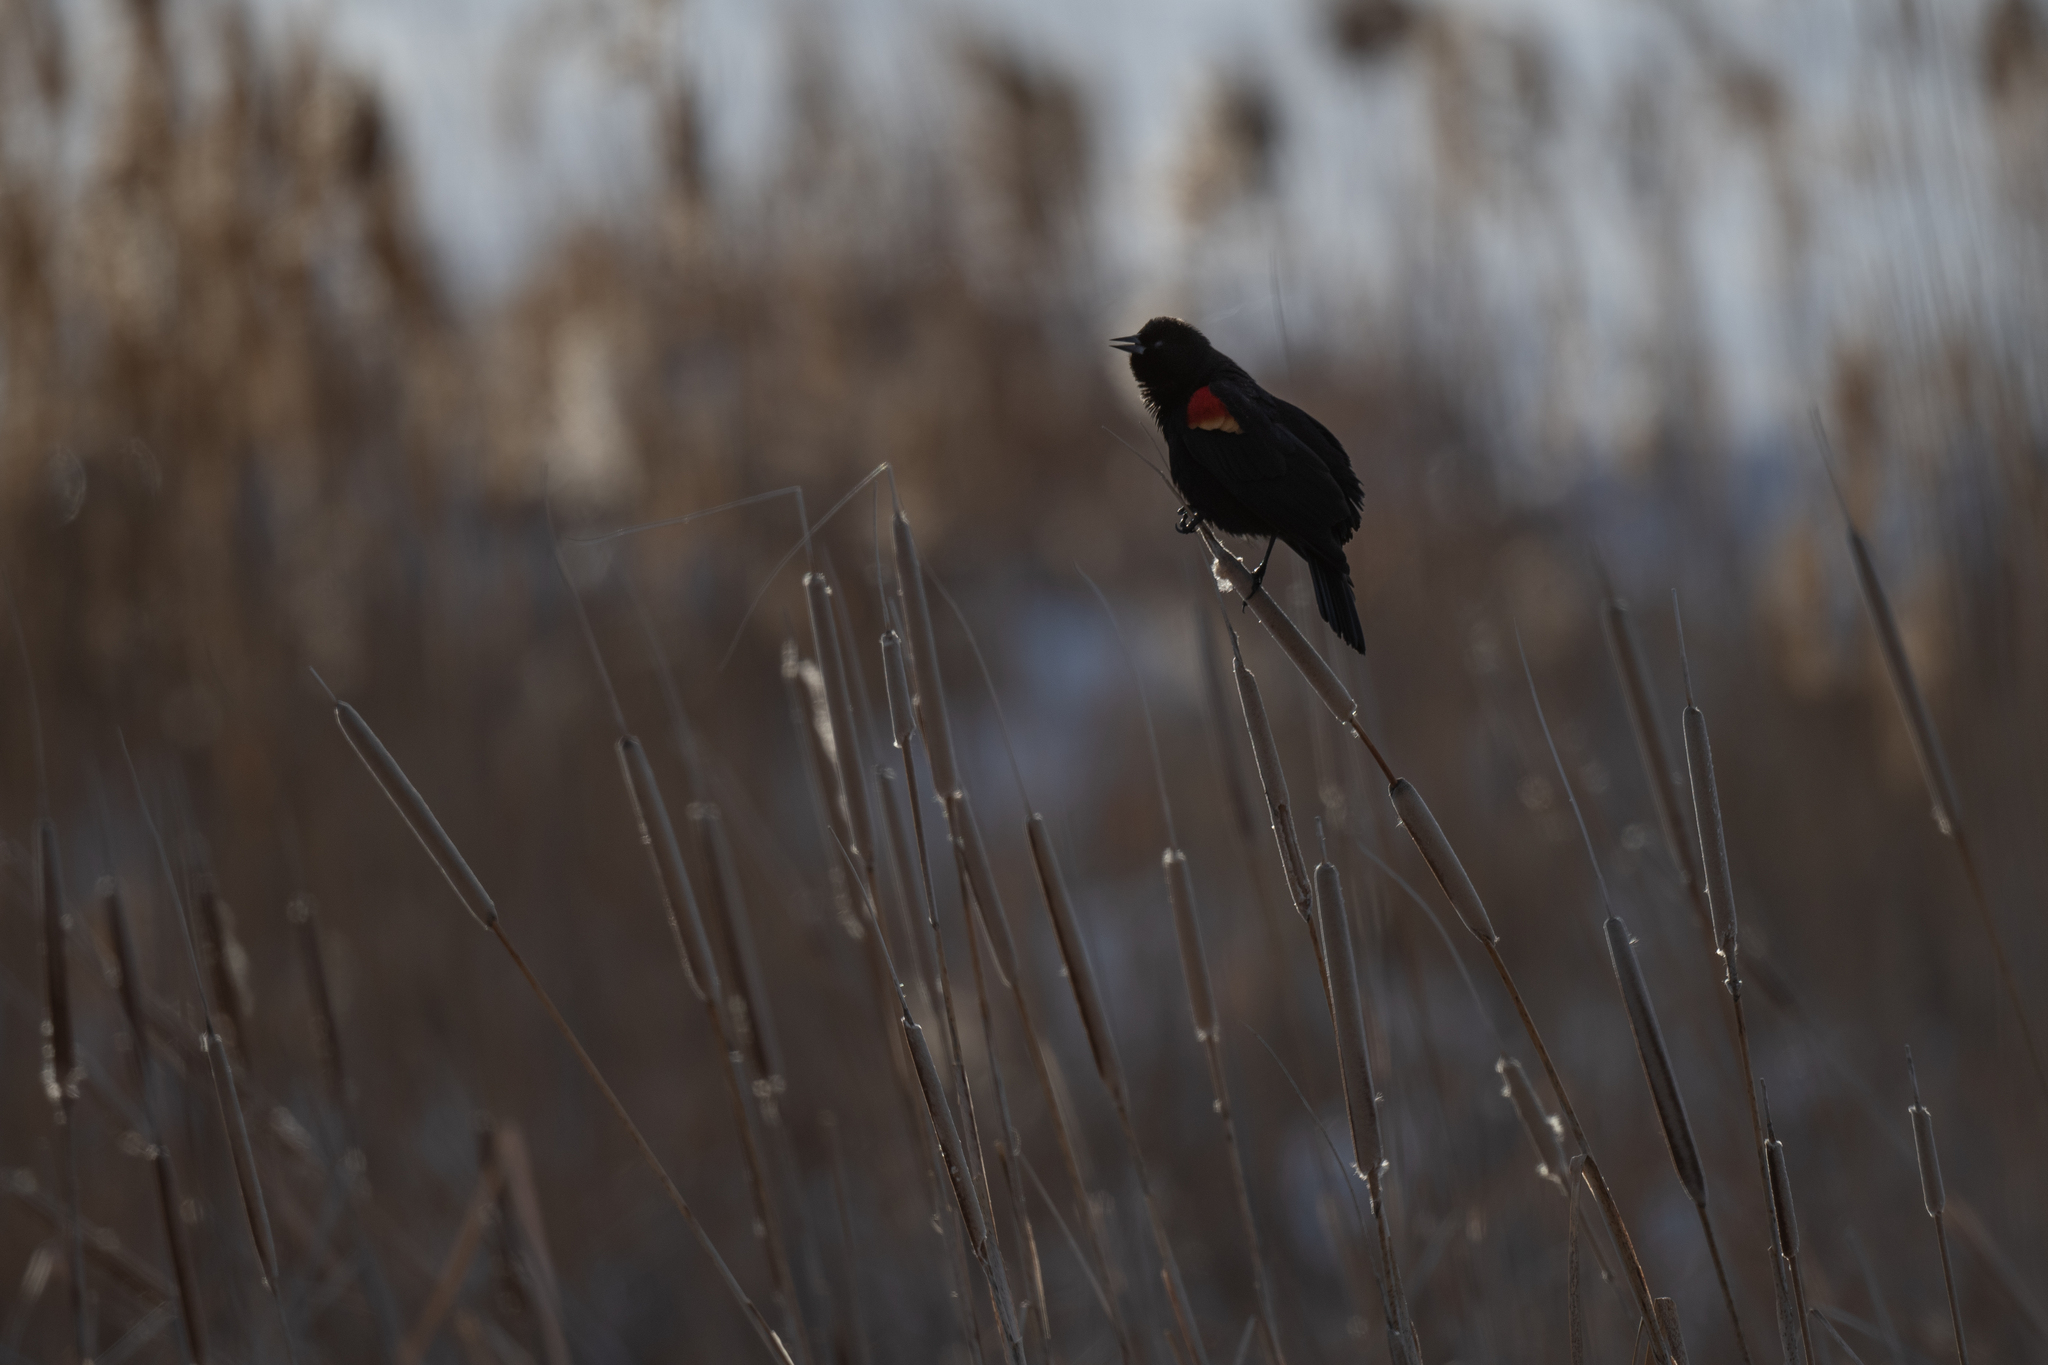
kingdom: Animalia
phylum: Chordata
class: Aves
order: Passeriformes
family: Icteridae
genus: Agelaius
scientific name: Agelaius phoeniceus
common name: Red-winged blackbird
